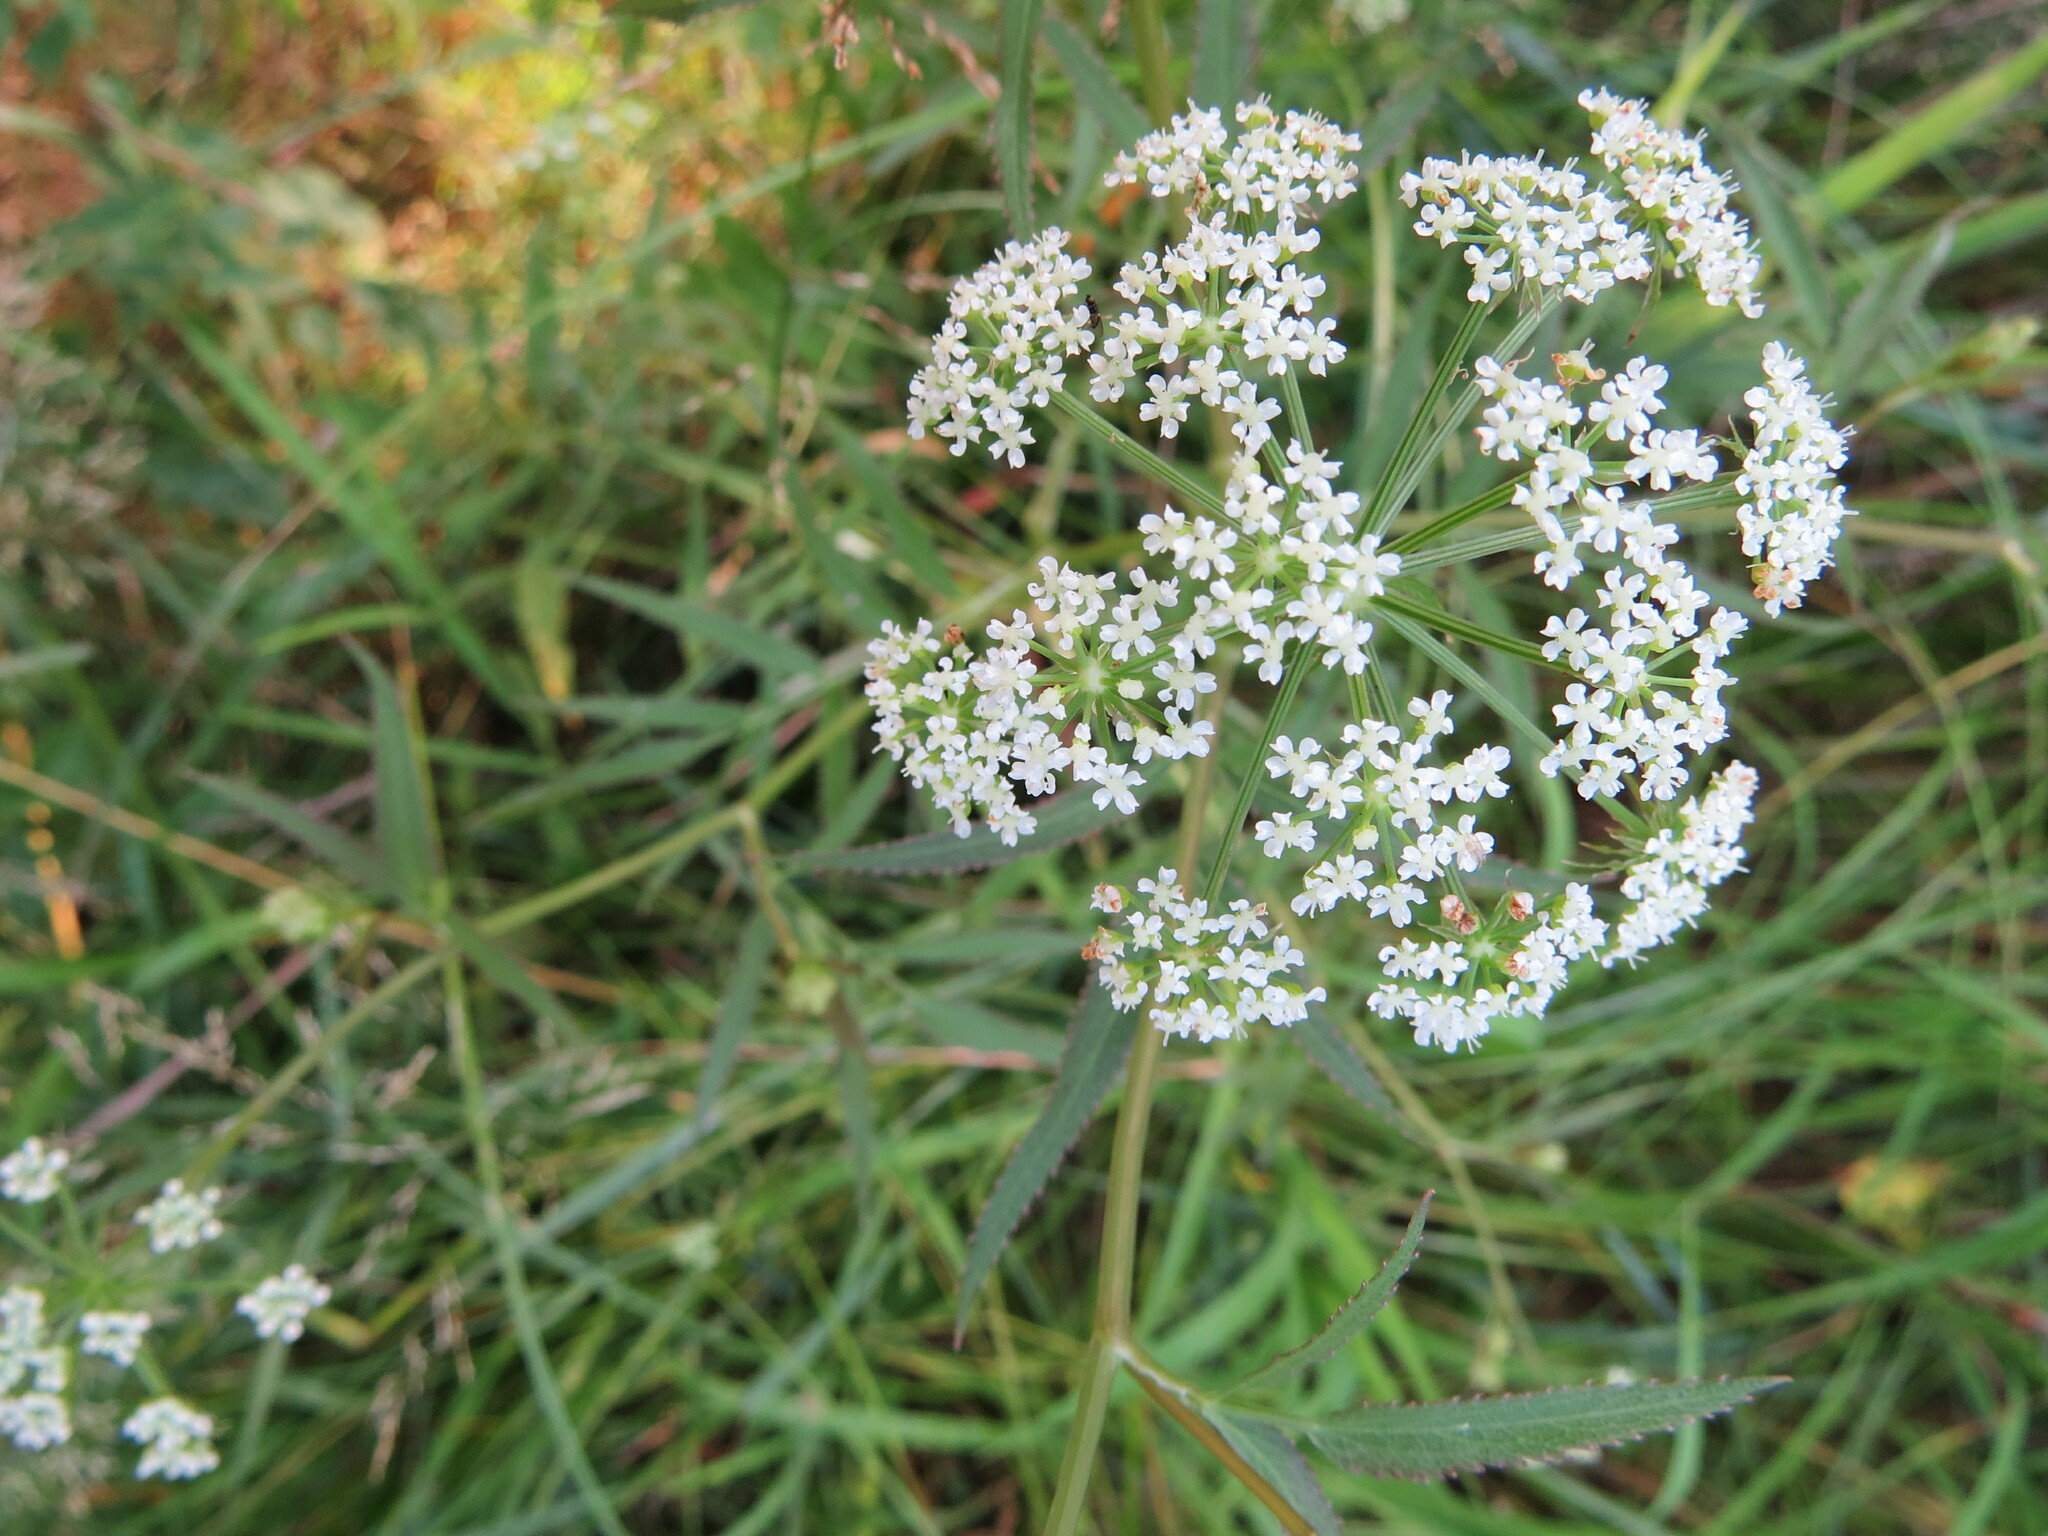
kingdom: Plantae
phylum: Tracheophyta
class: Magnoliopsida
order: Apiales
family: Apiaceae
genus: Sium
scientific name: Sium suave
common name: Hemlock water-parsnip
